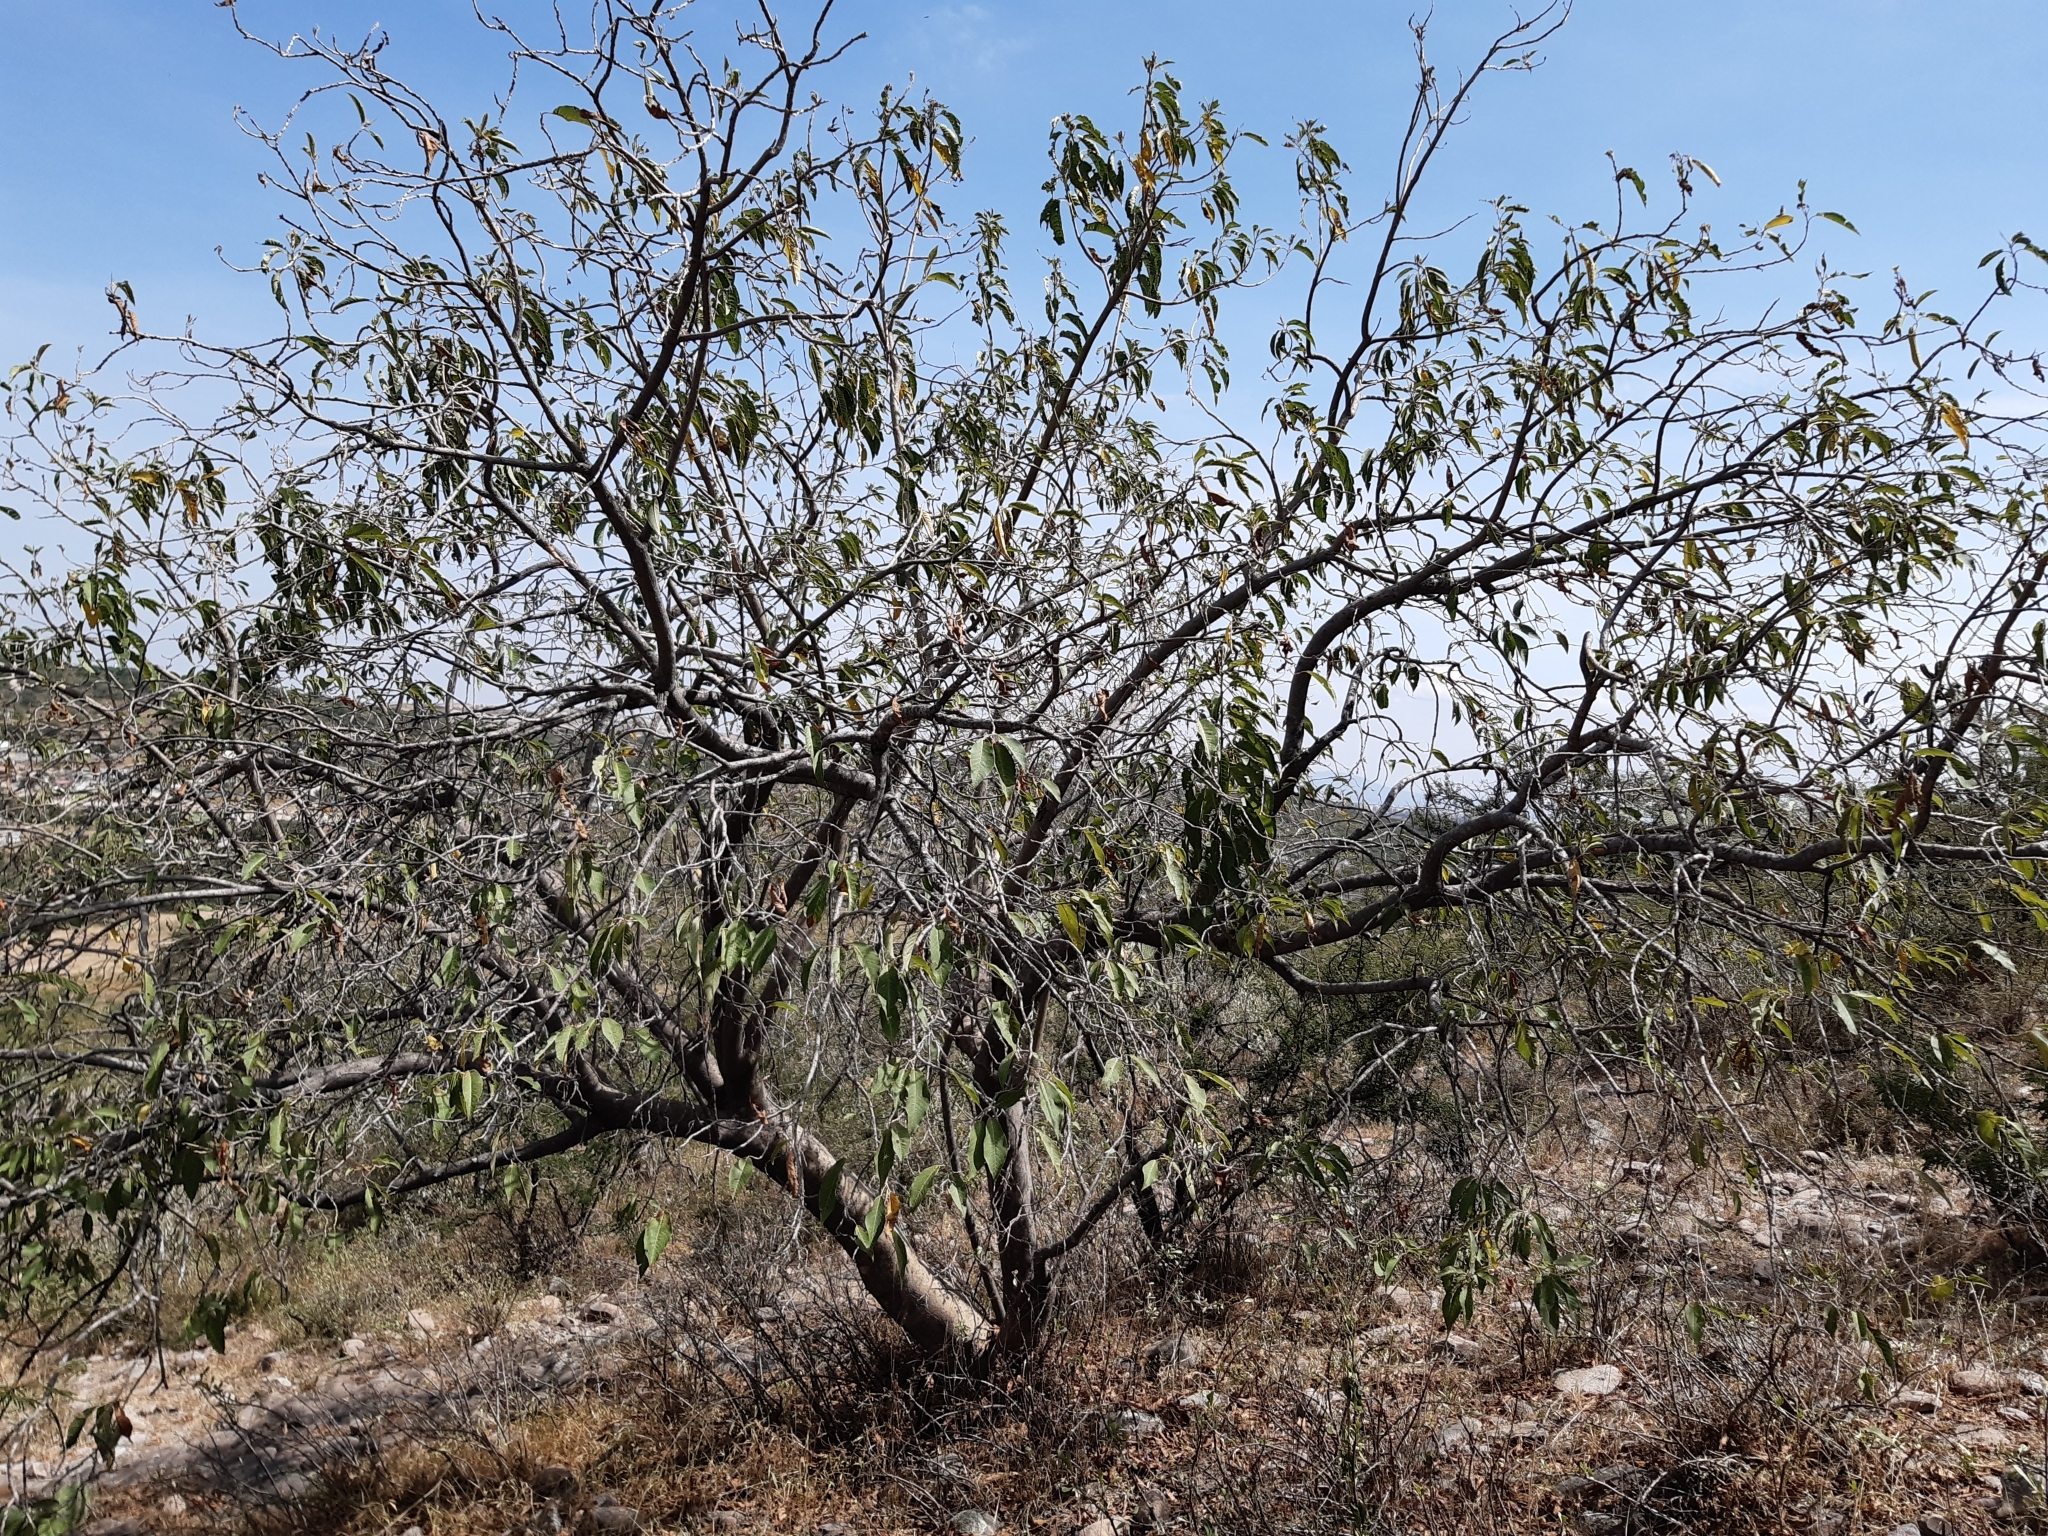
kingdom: Plantae
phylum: Tracheophyta
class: Magnoliopsida
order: Solanales
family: Convolvulaceae
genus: Ipomoea
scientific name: Ipomoea murucoides
